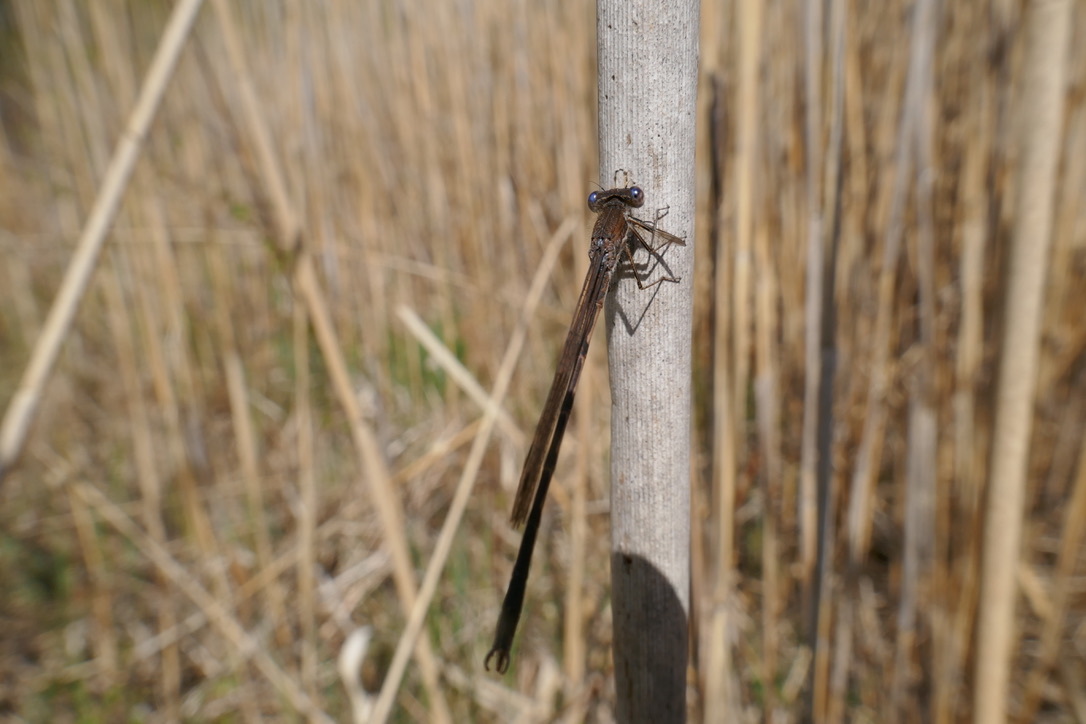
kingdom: Animalia
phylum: Arthropoda
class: Insecta
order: Odonata
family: Lestidae
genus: Sympecma
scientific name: Sympecma fusca
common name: Common winter damsel
